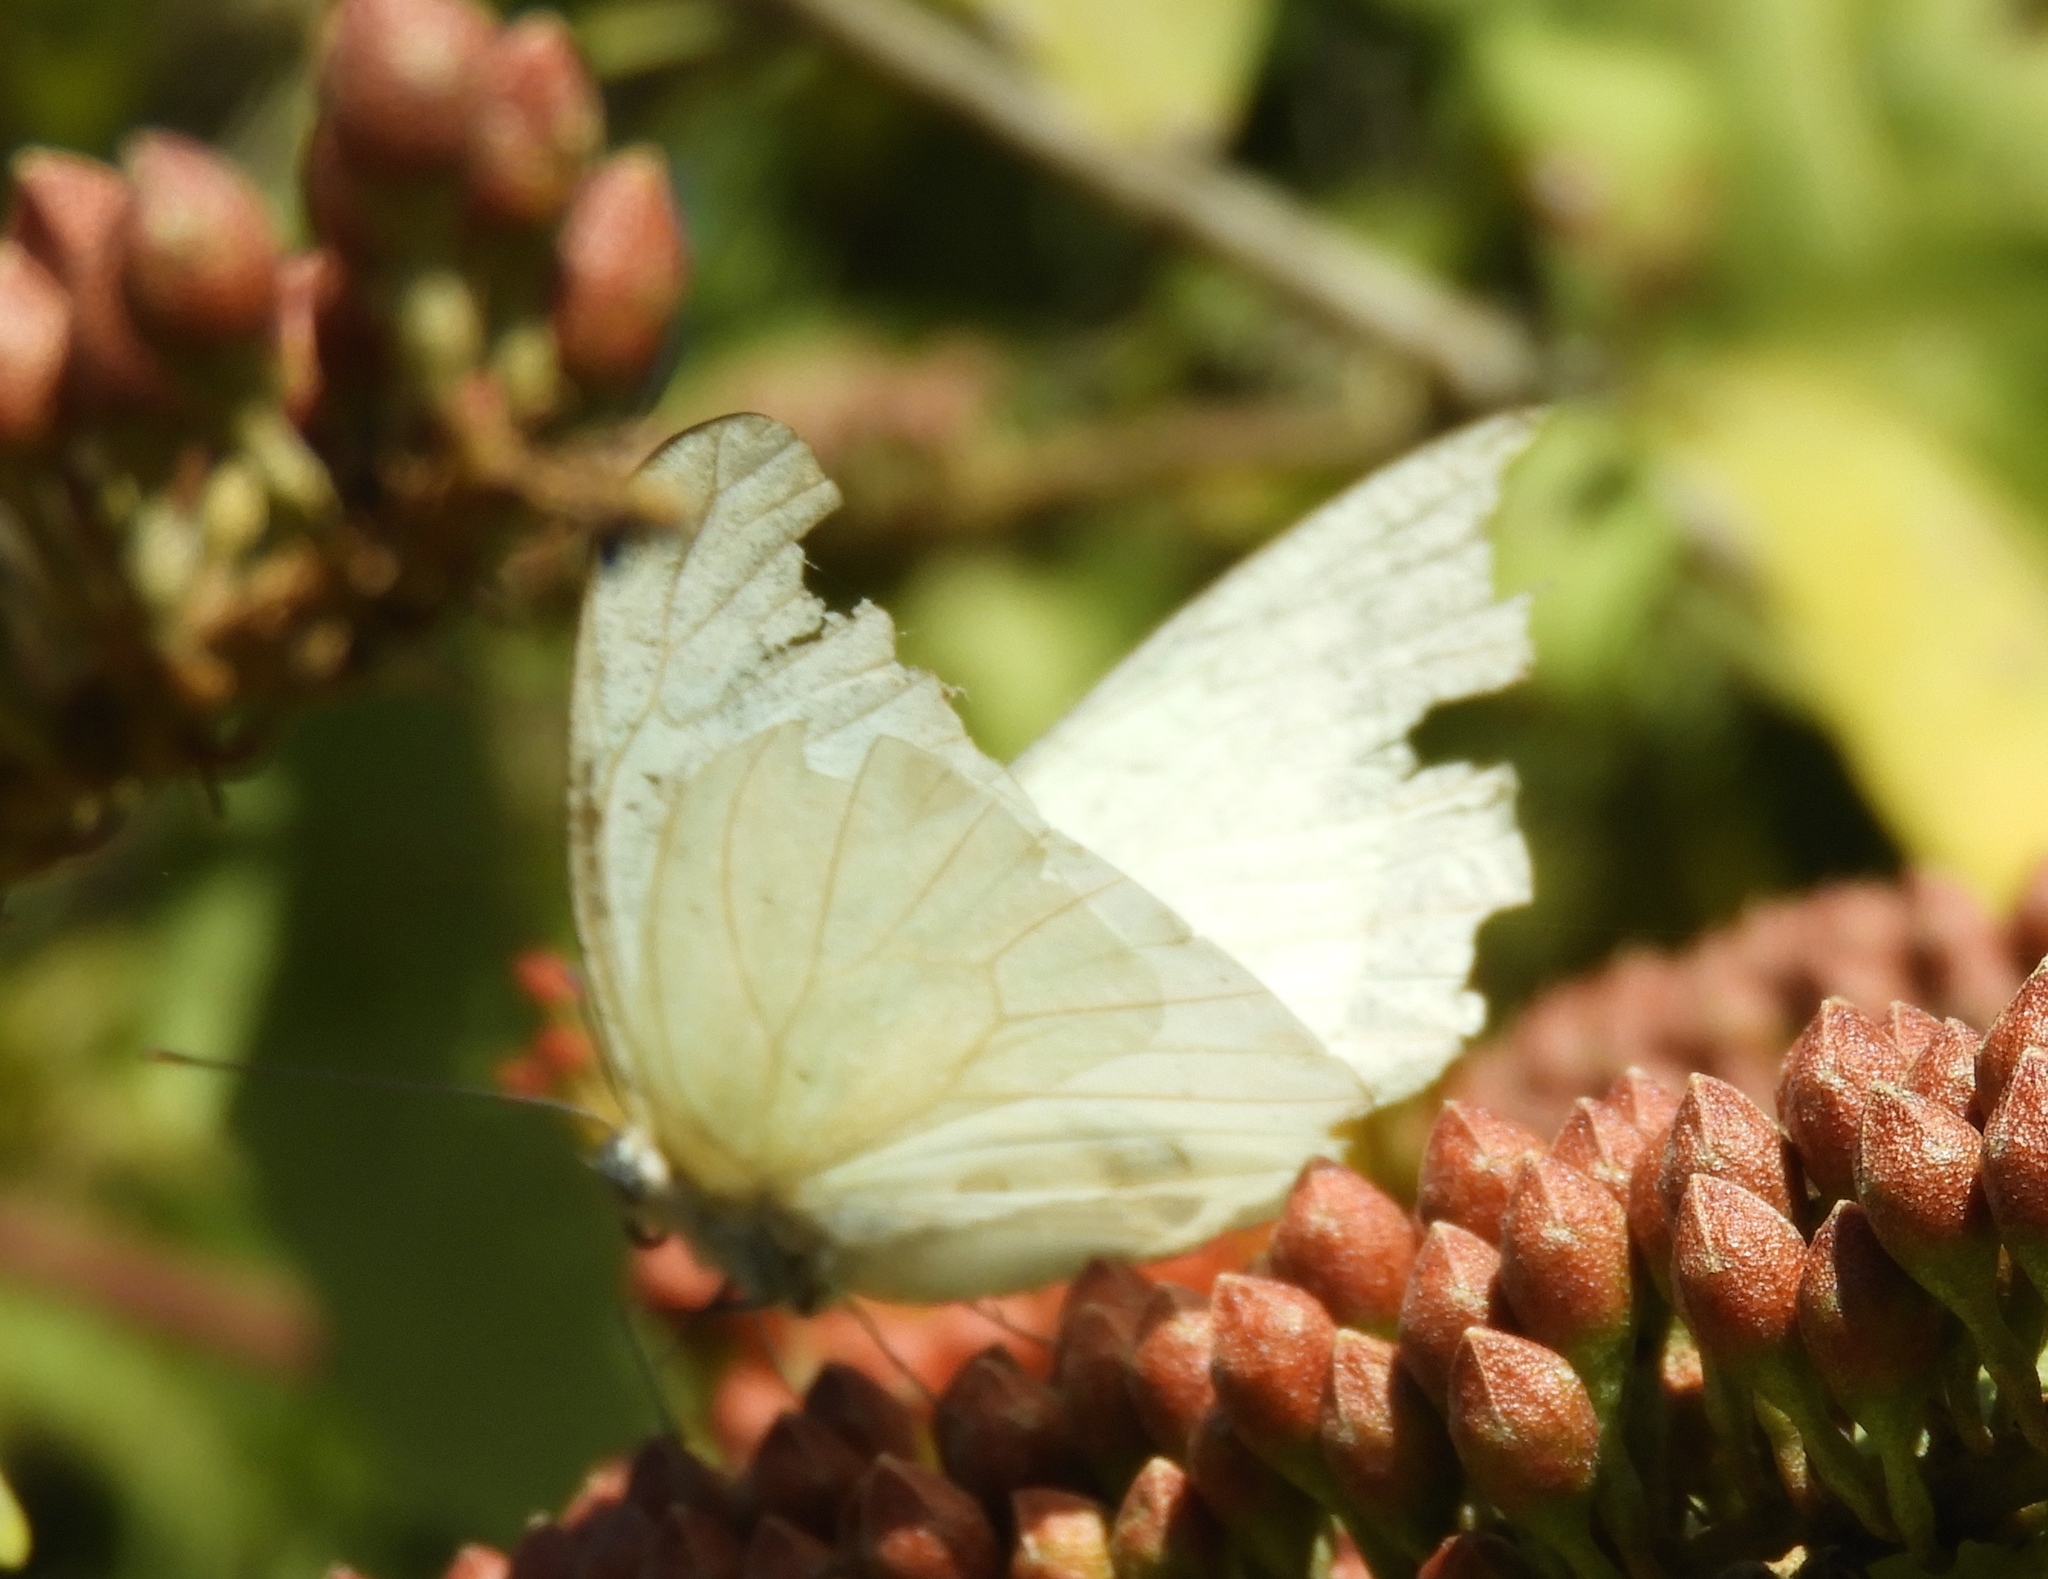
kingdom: Animalia
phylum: Arthropoda
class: Insecta
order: Lepidoptera
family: Pieridae
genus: Ascia
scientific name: Ascia monuste
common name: Great southern white
